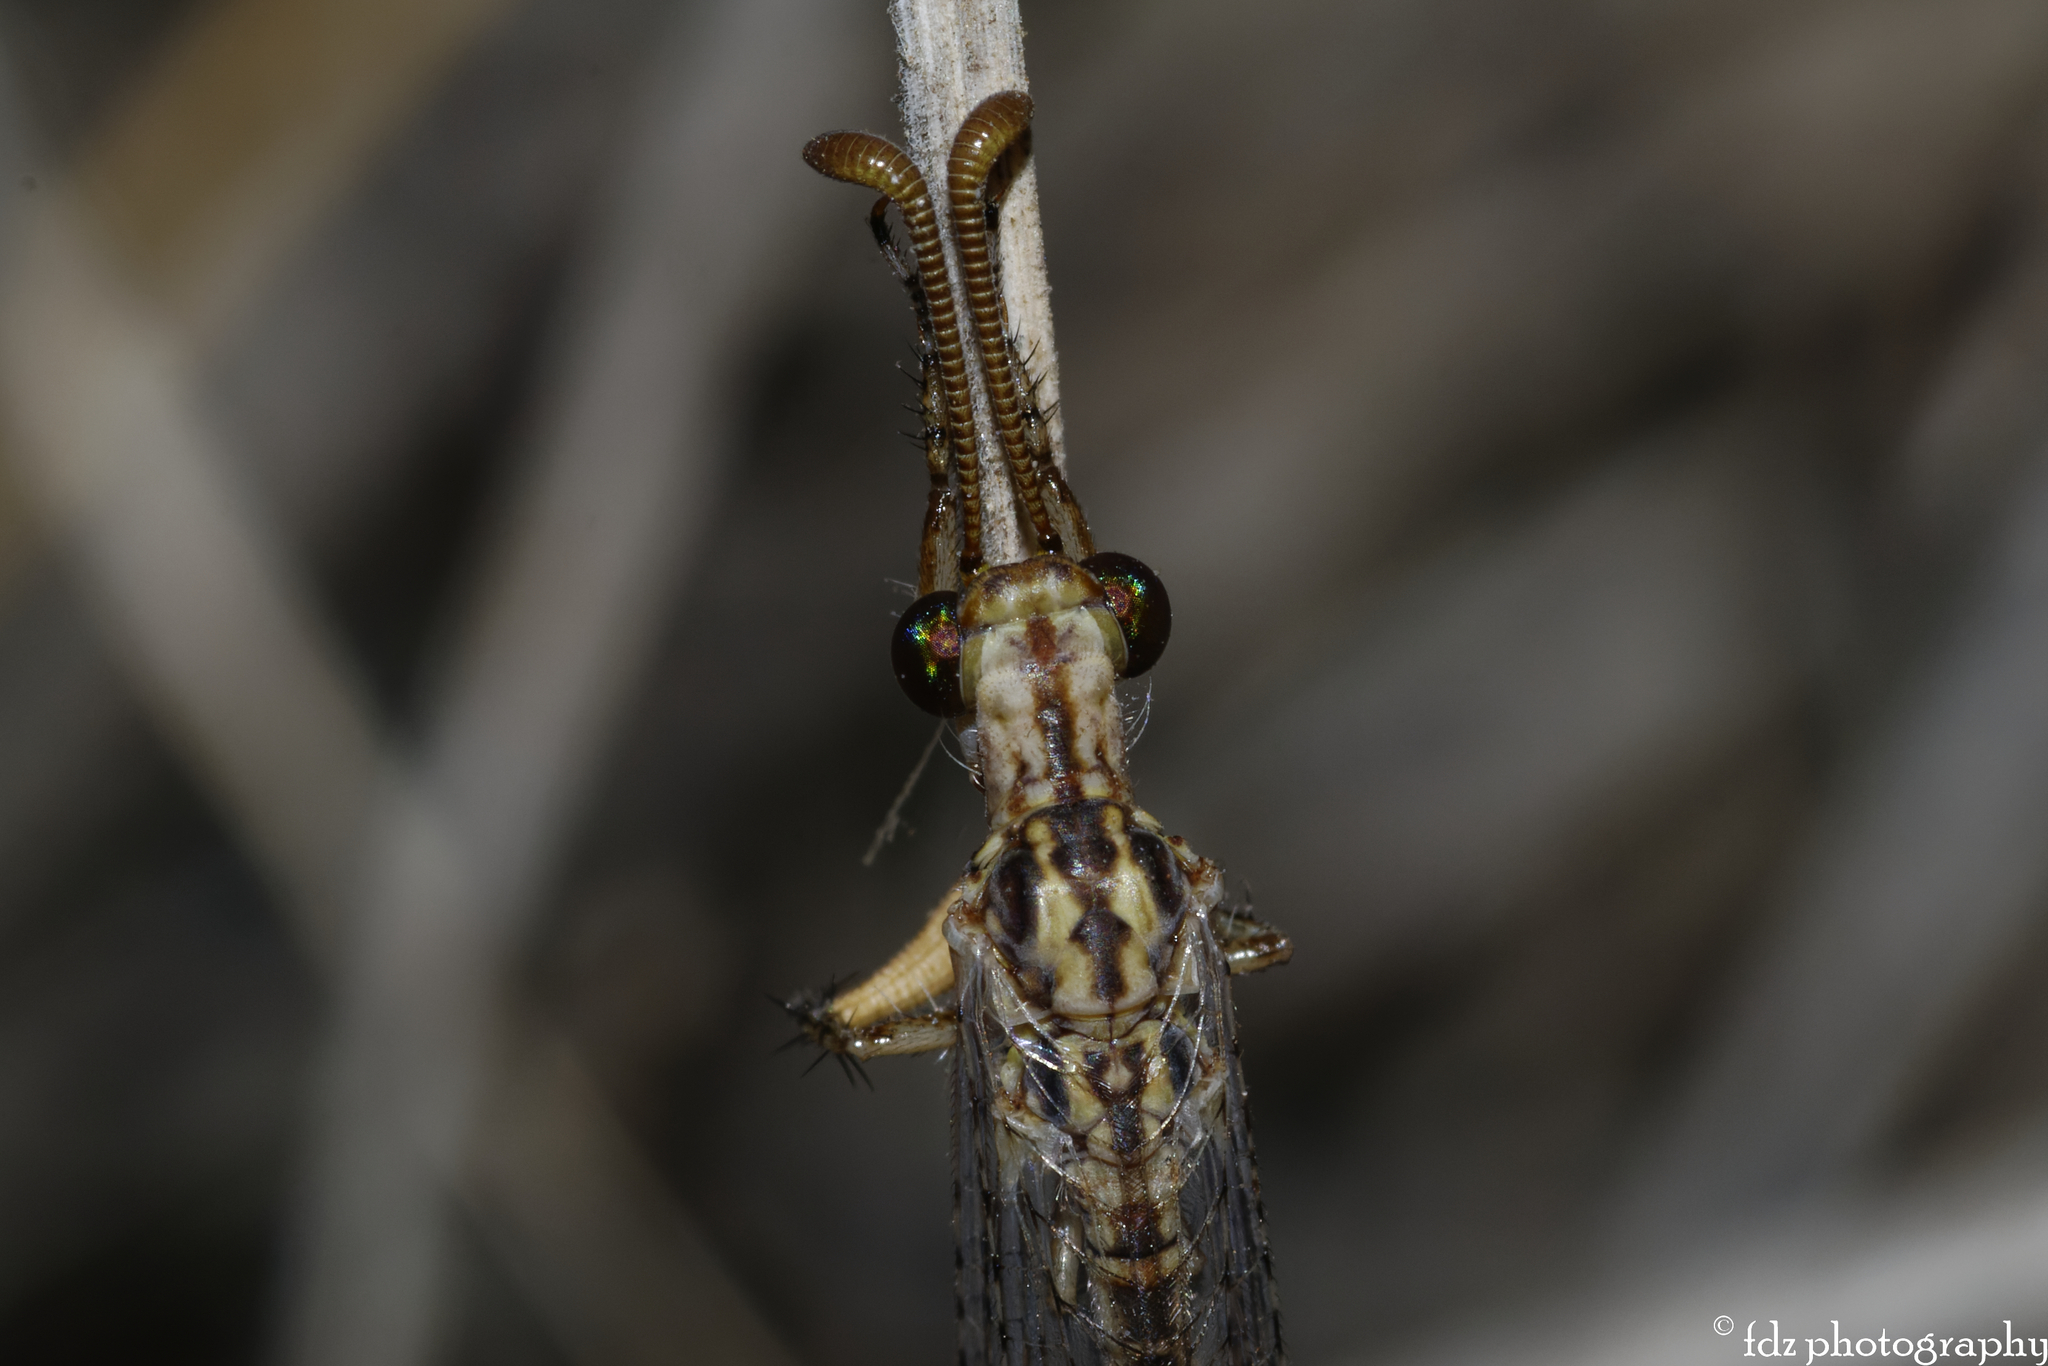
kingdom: Animalia
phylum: Arthropoda
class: Insecta
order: Neuroptera
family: Myrmeleontidae
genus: Macronemurus
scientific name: Macronemurus appendiculatus
